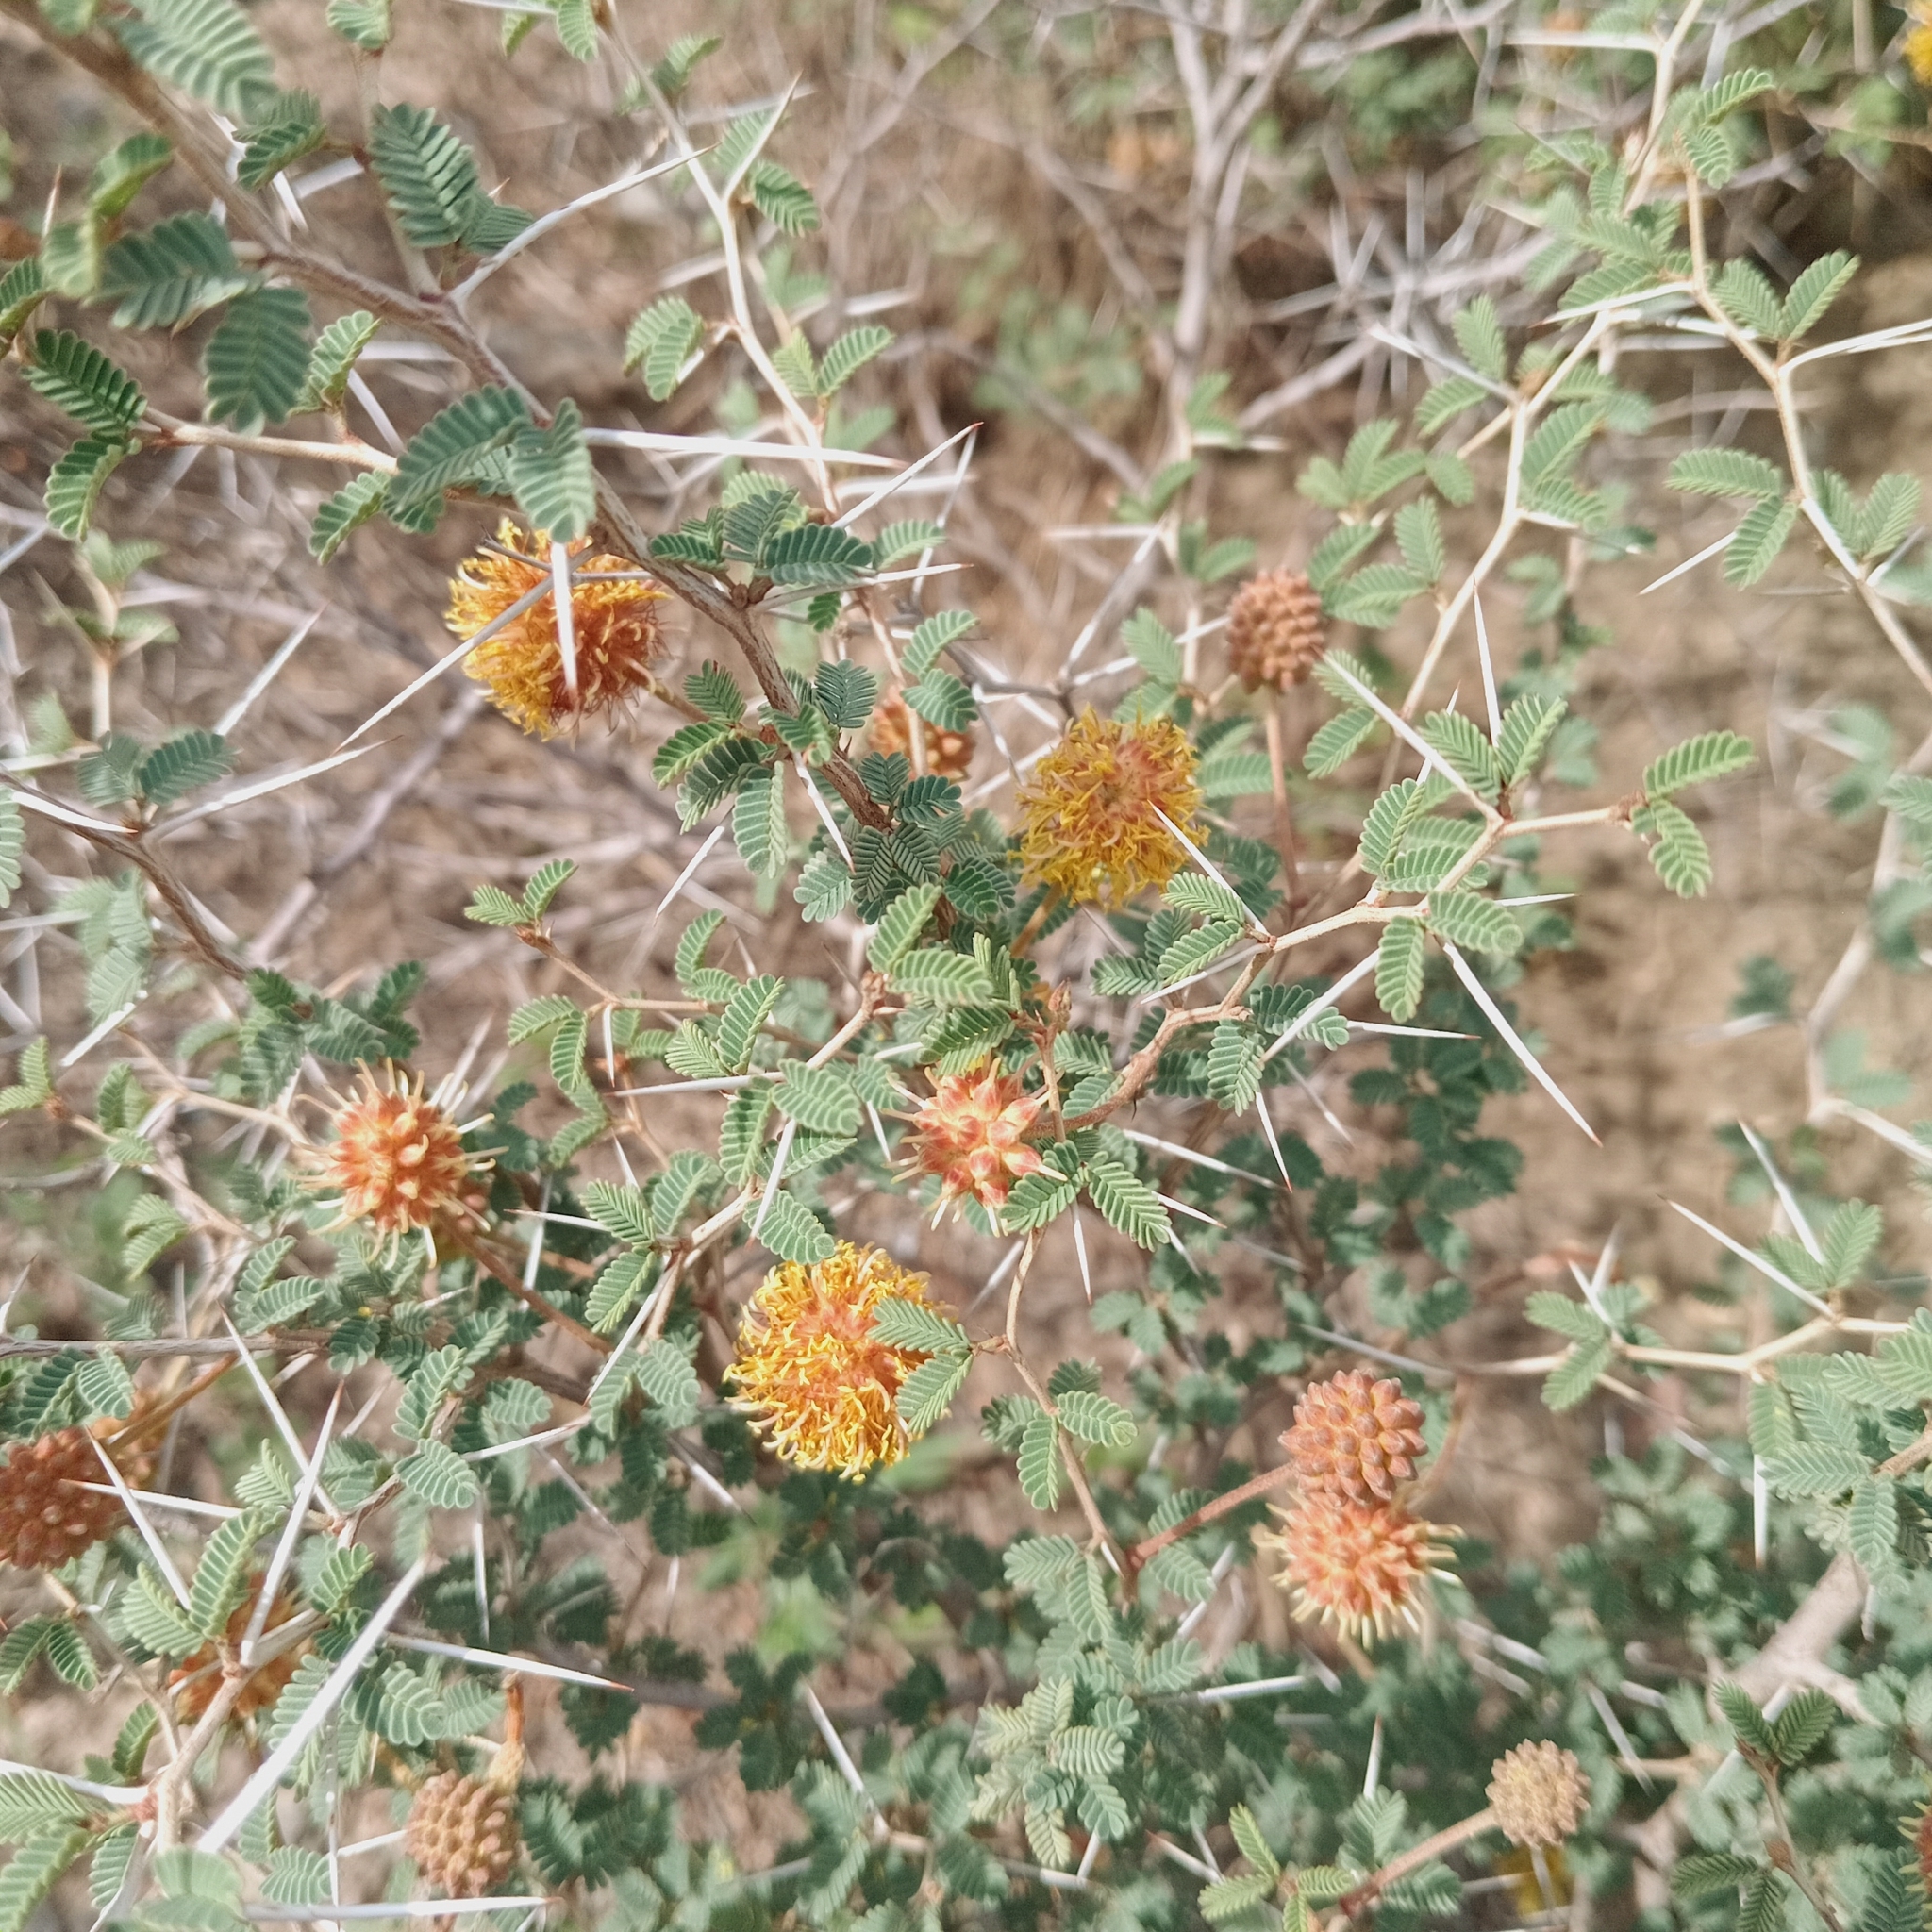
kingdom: Plantae
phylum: Tracheophyta
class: Magnoliopsida
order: Fabales
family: Fabaceae
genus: Prosopis
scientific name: Prosopis reptans
